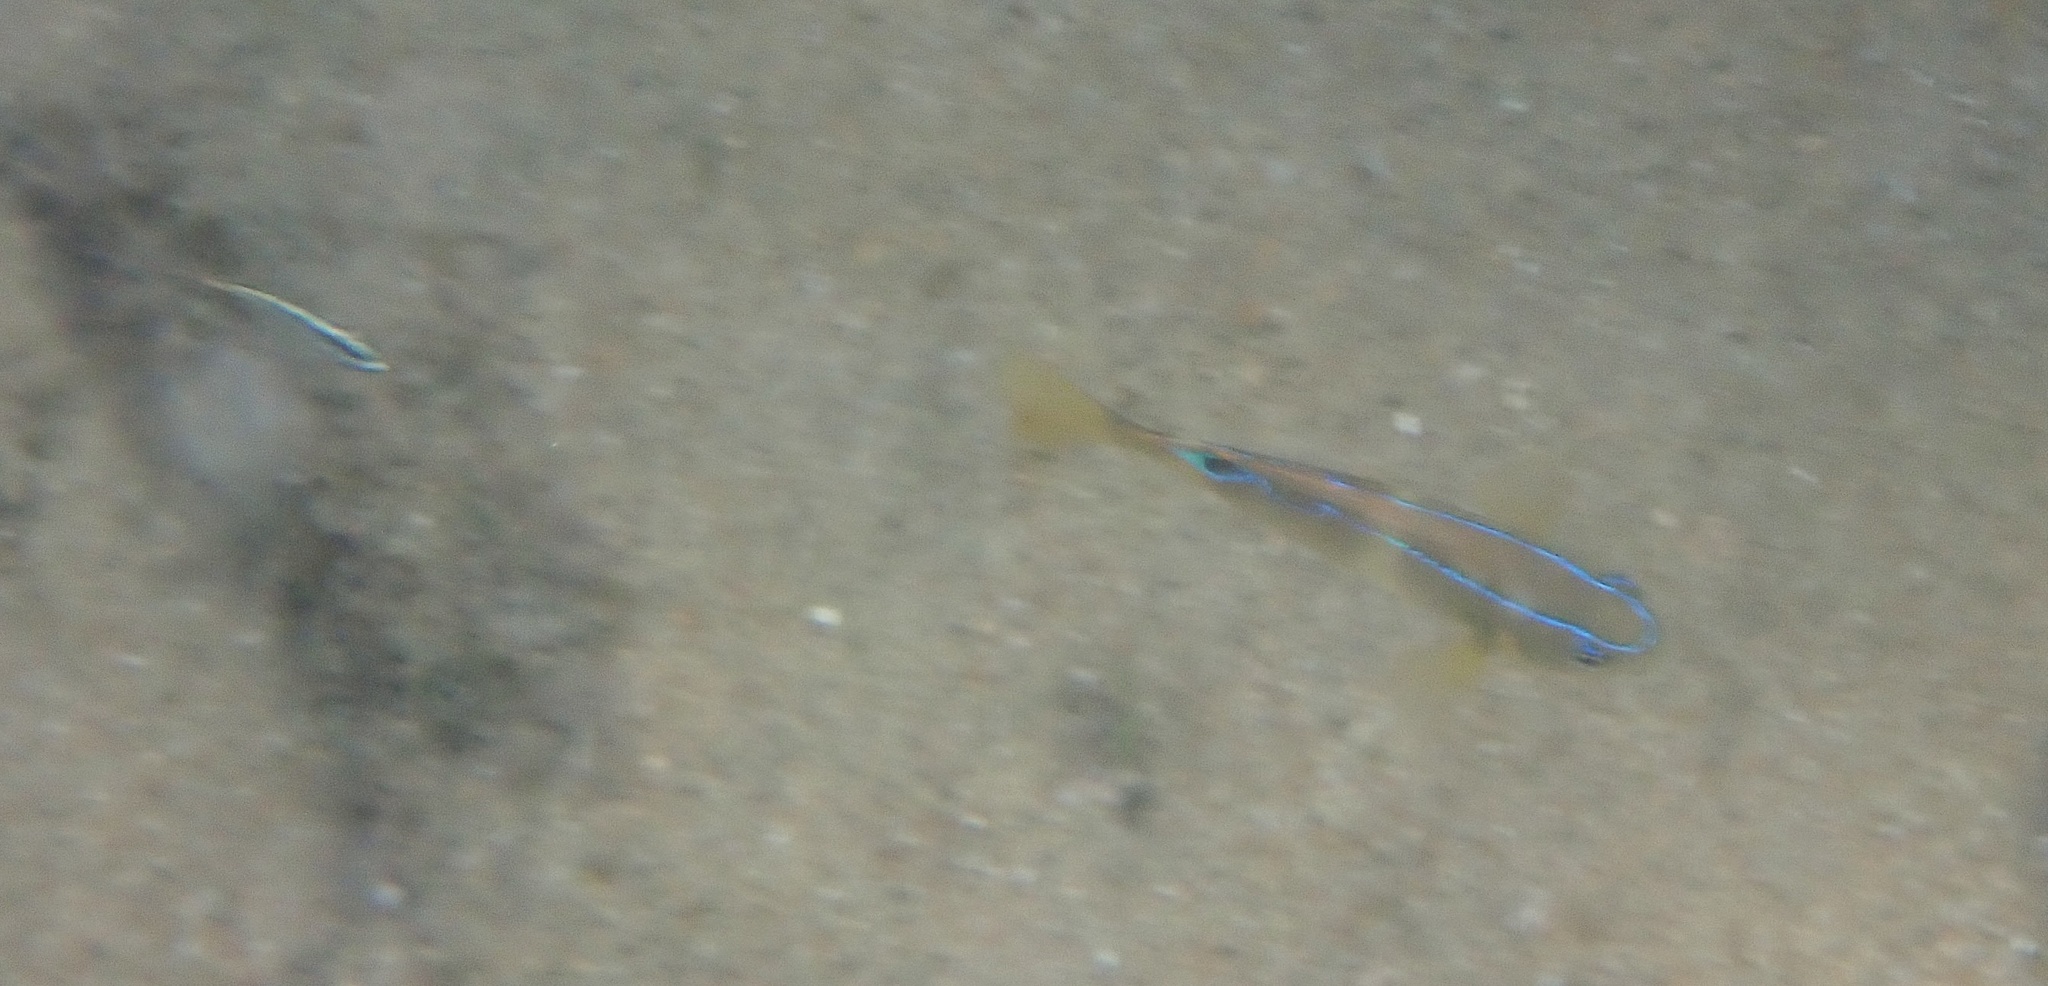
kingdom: Animalia
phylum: Chordata
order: Perciformes
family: Pomacentridae
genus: Chrysiptera
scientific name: Chrysiptera brownriggii
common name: Surge demoiselle
